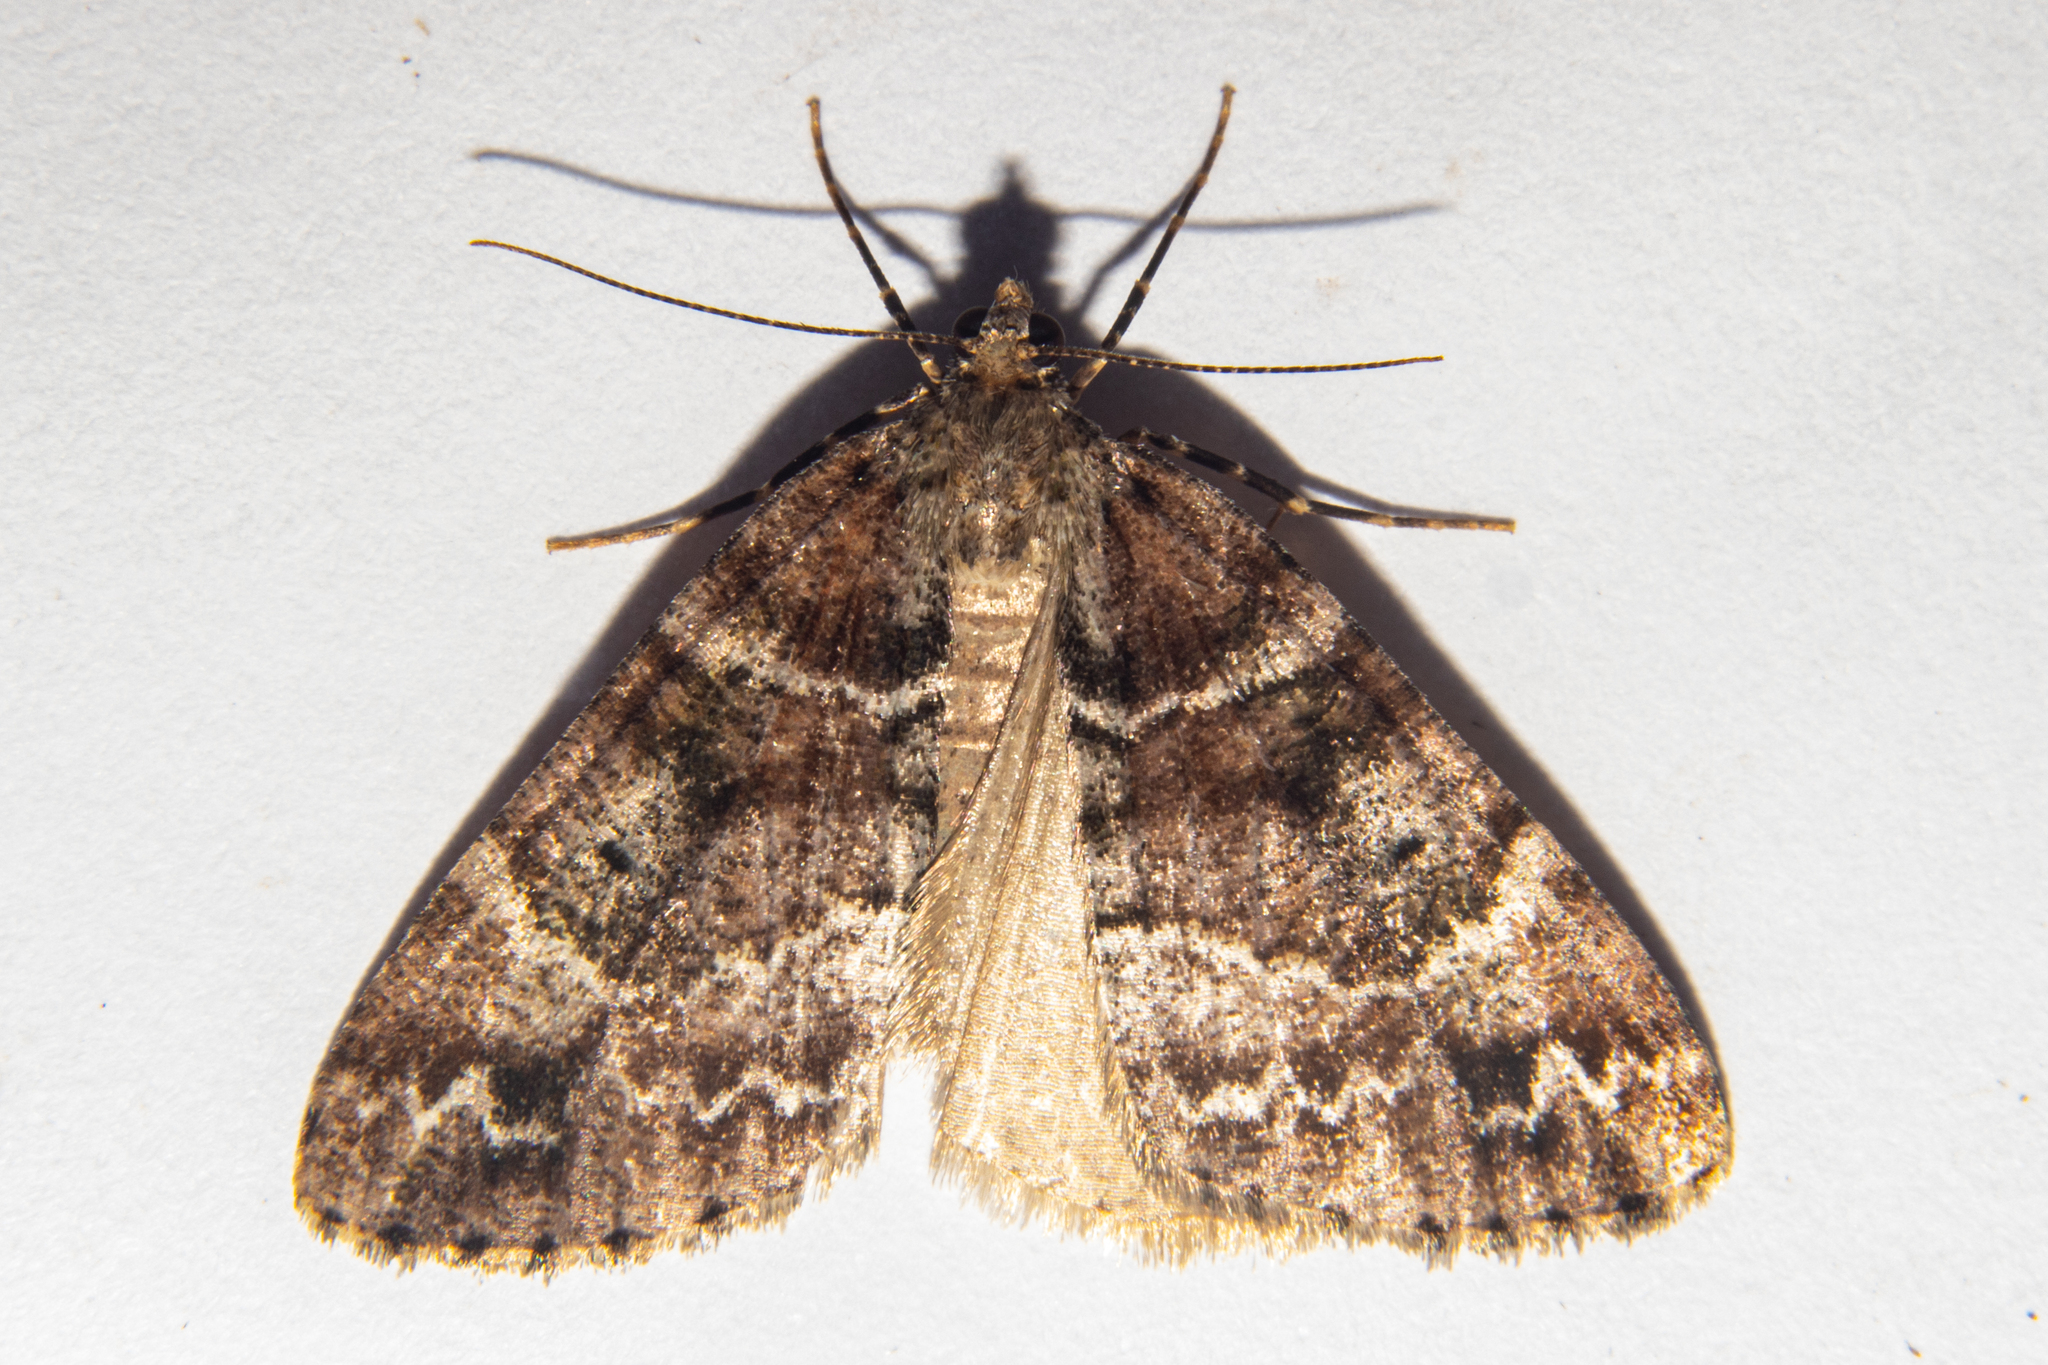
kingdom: Animalia
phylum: Arthropoda
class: Insecta
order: Lepidoptera
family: Geometridae
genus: Pseudocoremia
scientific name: Pseudocoremia productata
